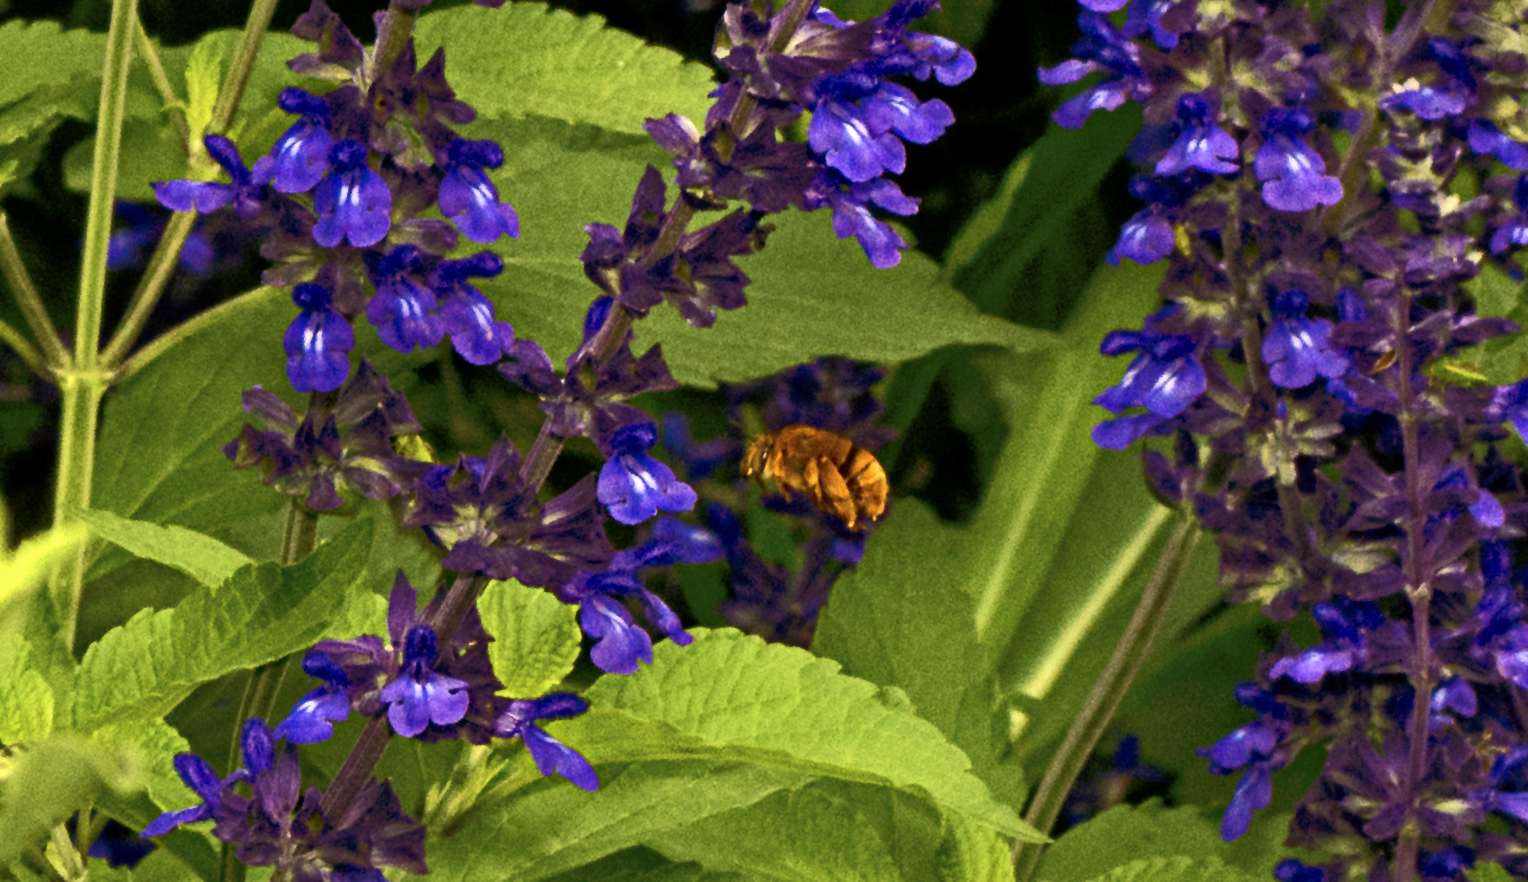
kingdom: Animalia
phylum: Arthropoda
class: Insecta
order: Hymenoptera
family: Apidae
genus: Amegilla
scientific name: Amegilla bombiformis
